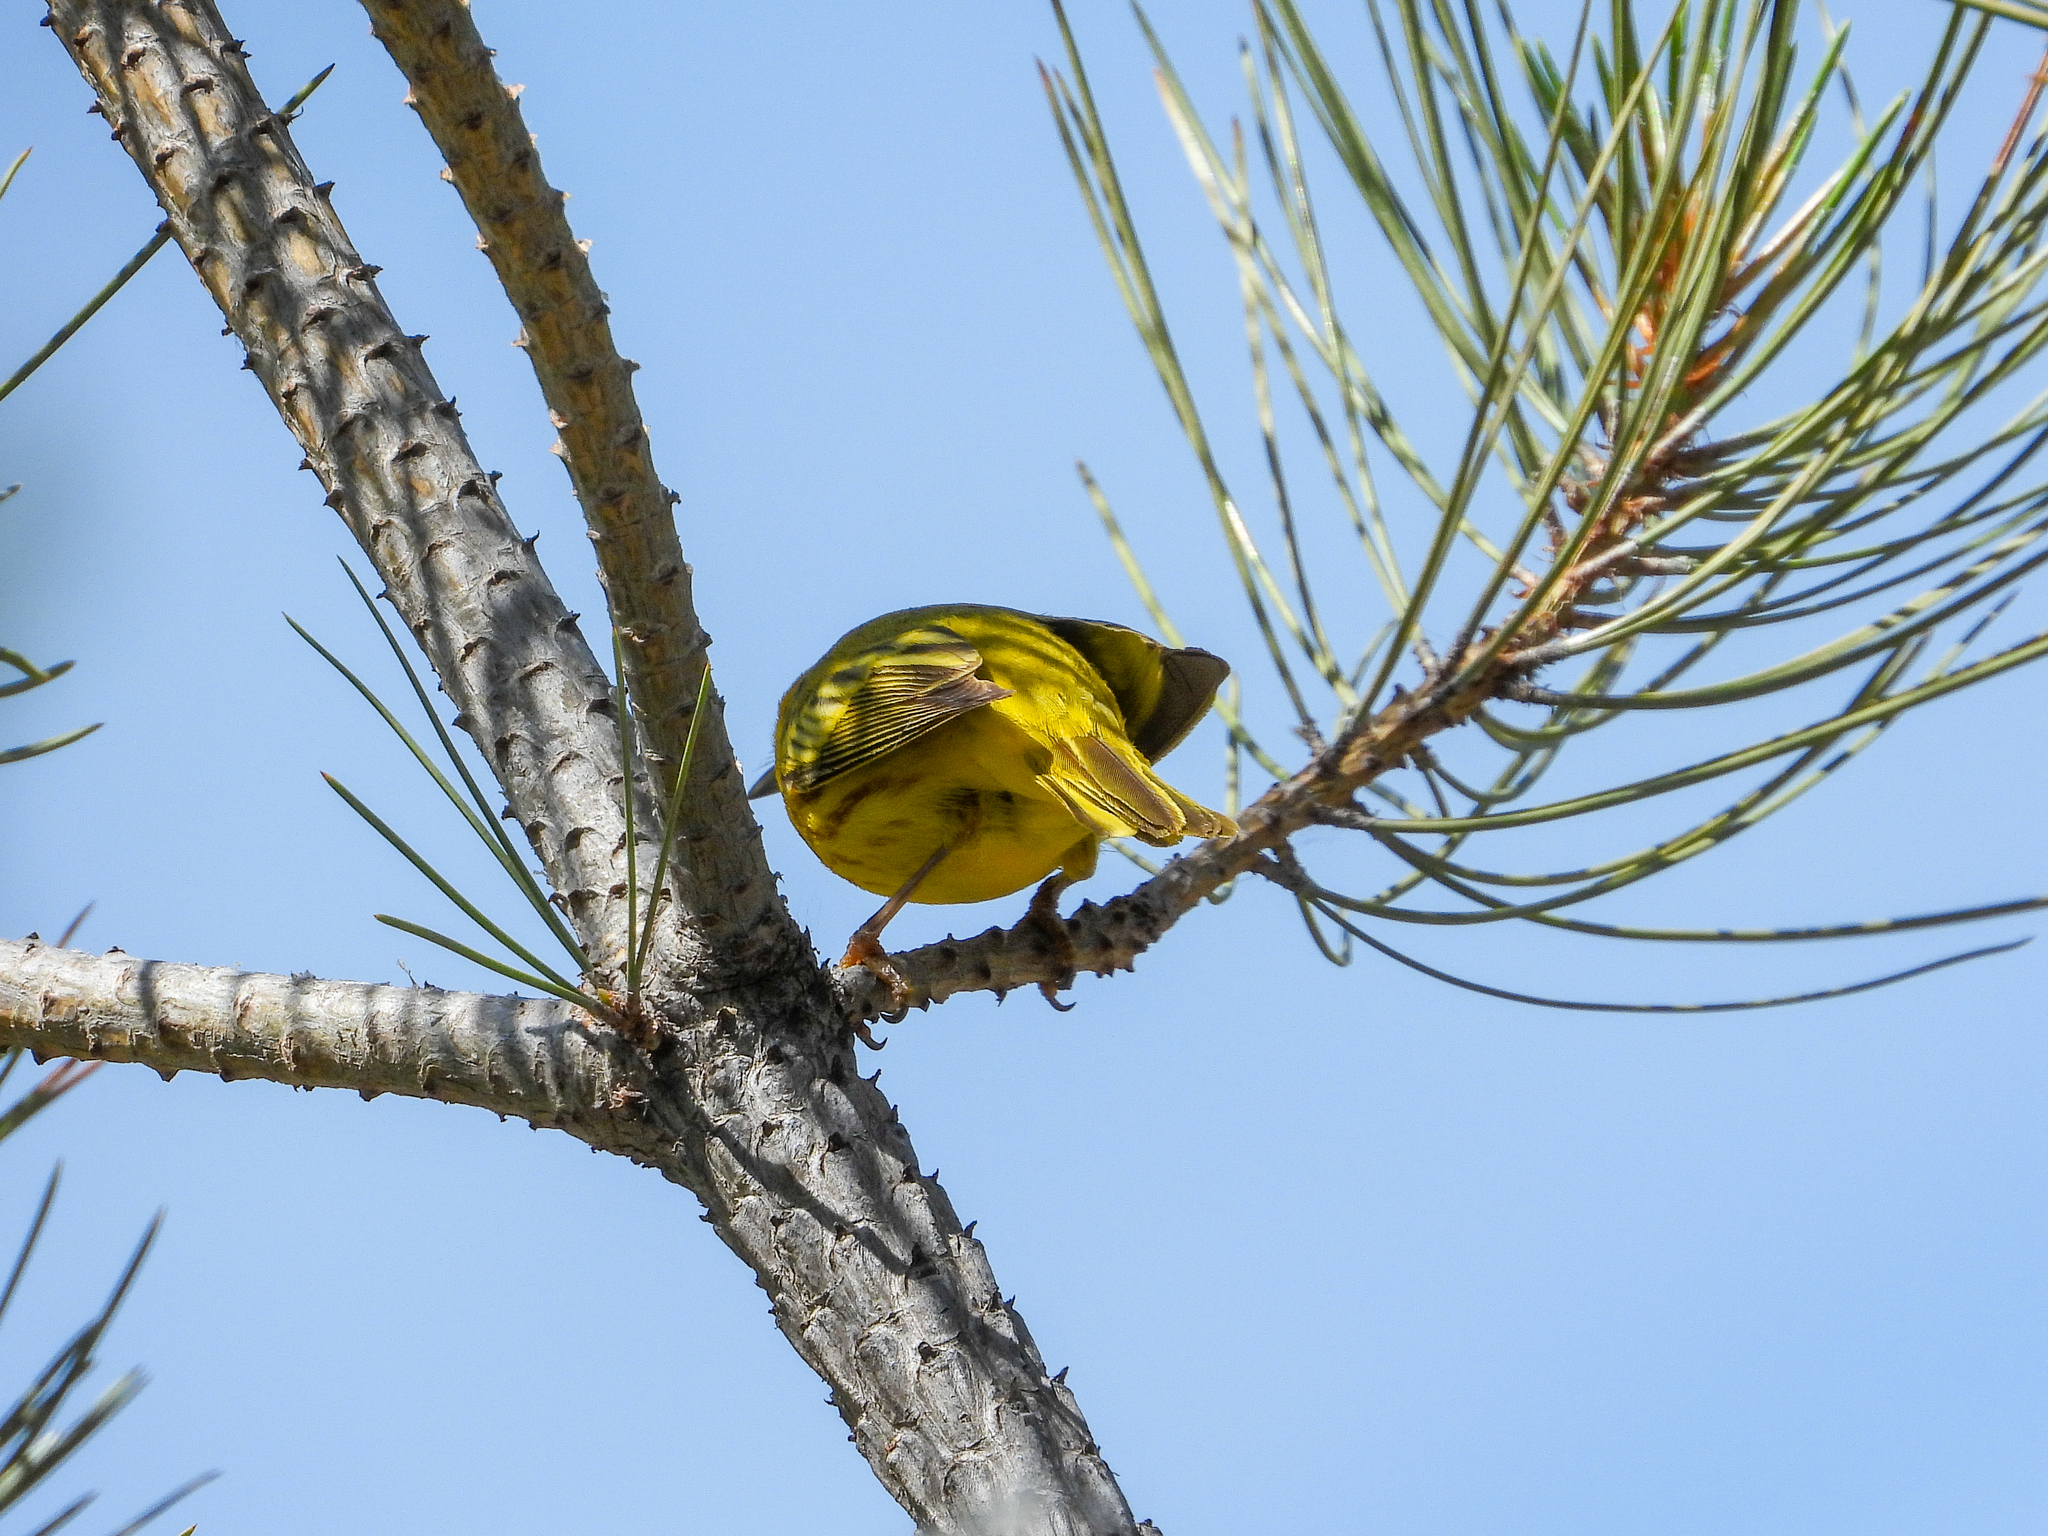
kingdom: Animalia
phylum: Chordata
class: Aves
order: Passeriformes
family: Parulidae
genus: Setophaga
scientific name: Setophaga petechia
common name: Yellow warbler
